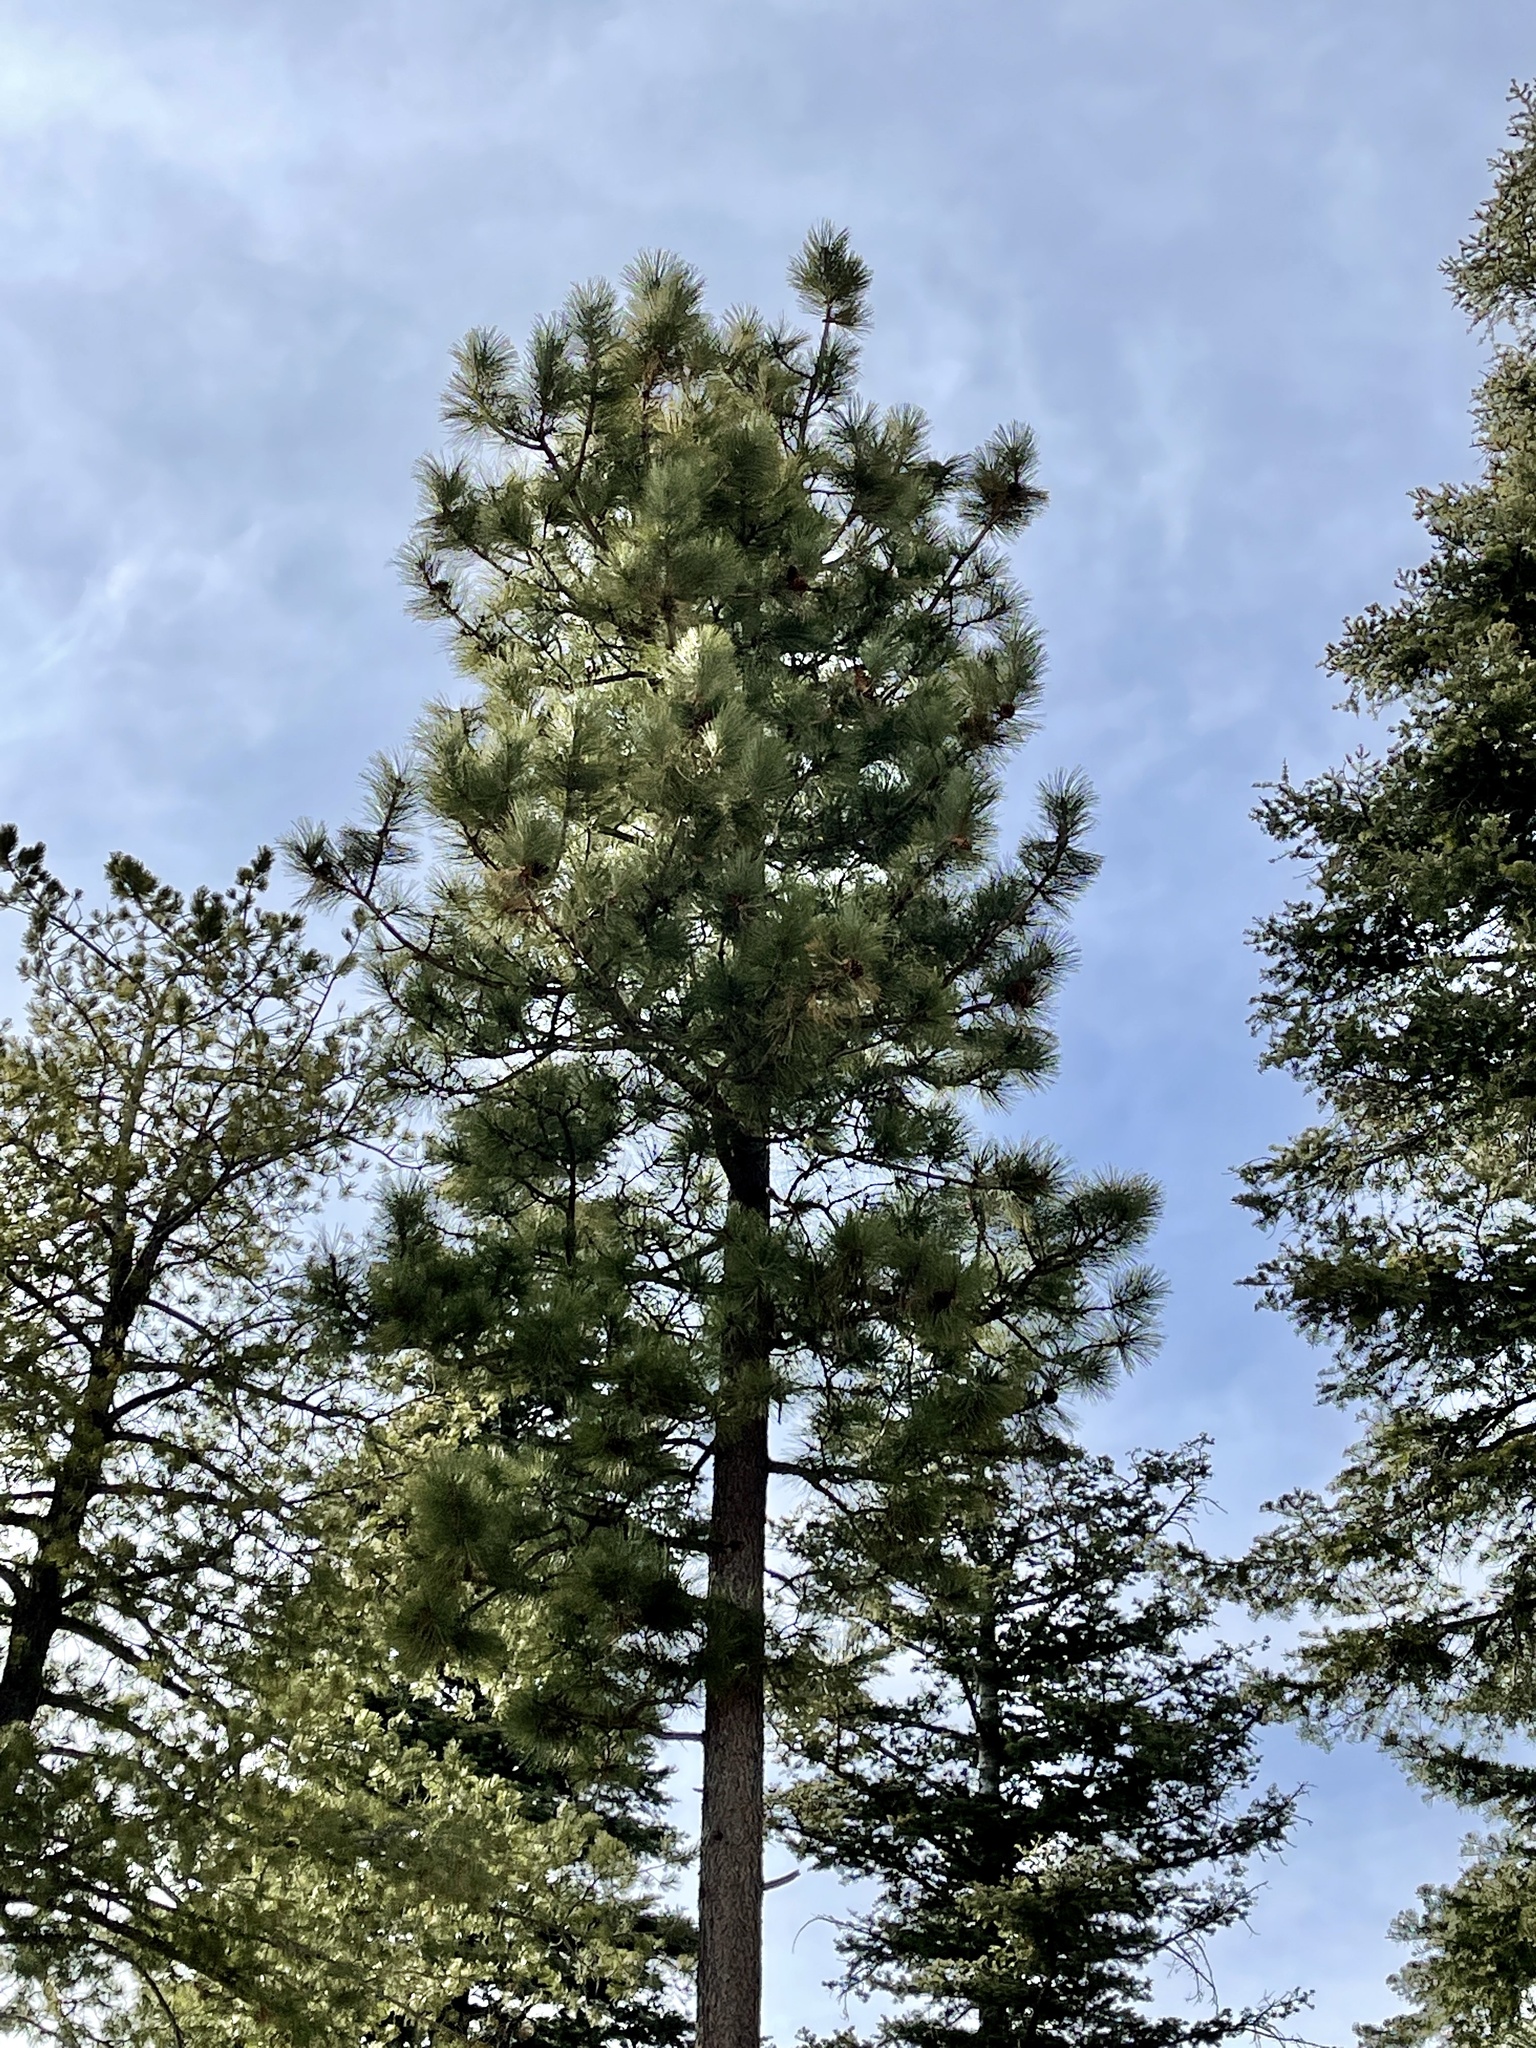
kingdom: Plantae
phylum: Tracheophyta
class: Pinopsida
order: Pinales
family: Pinaceae
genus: Pinus
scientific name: Pinus ponderosa
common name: Western yellow-pine
